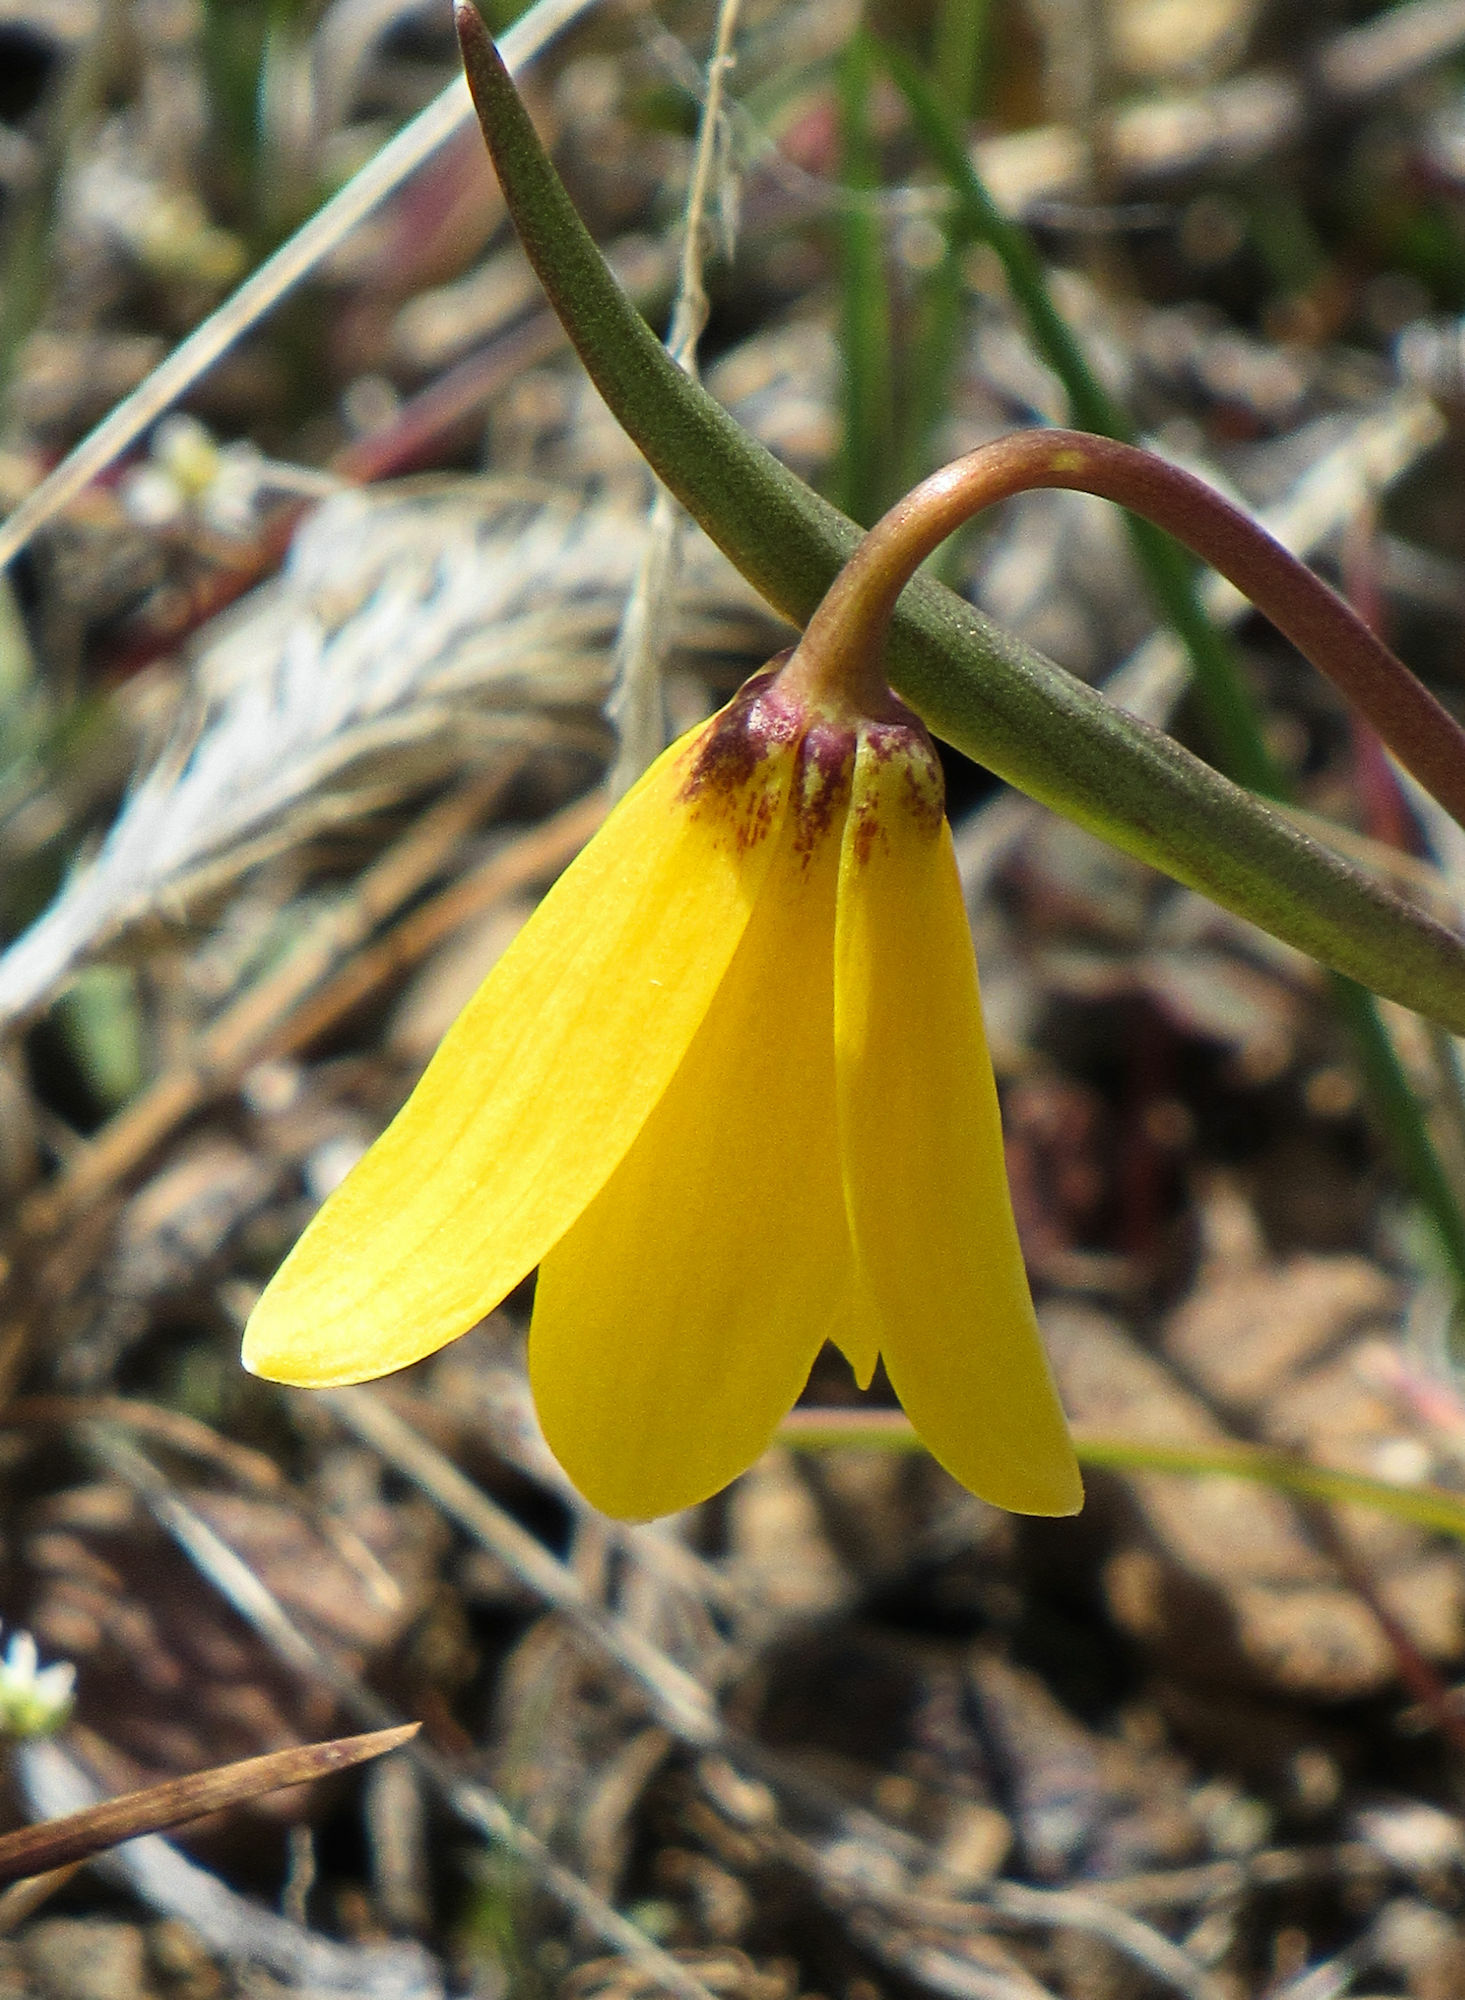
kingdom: Plantae
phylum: Tracheophyta
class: Liliopsida
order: Liliales
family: Liliaceae
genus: Fritillaria
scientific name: Fritillaria pudica
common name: Yellow fritillary
